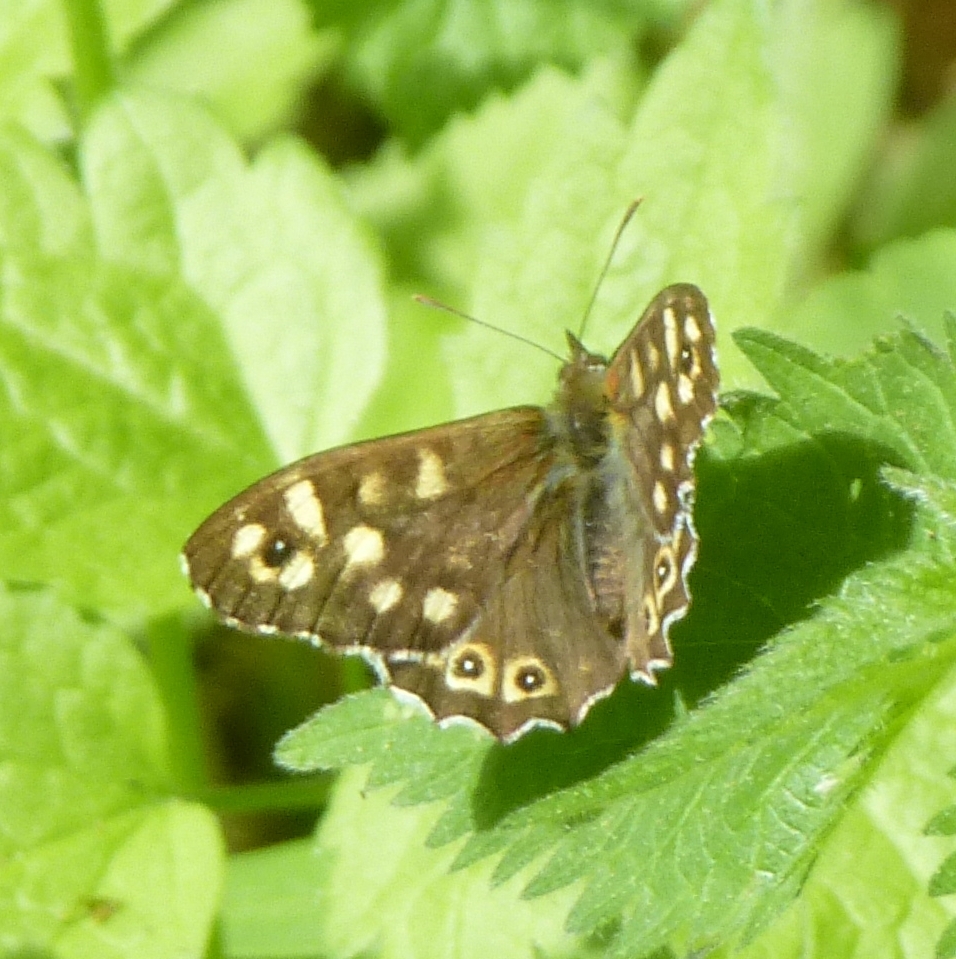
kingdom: Animalia
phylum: Arthropoda
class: Insecta
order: Lepidoptera
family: Nymphalidae
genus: Pararge
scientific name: Pararge aegeria
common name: Speckled wood
